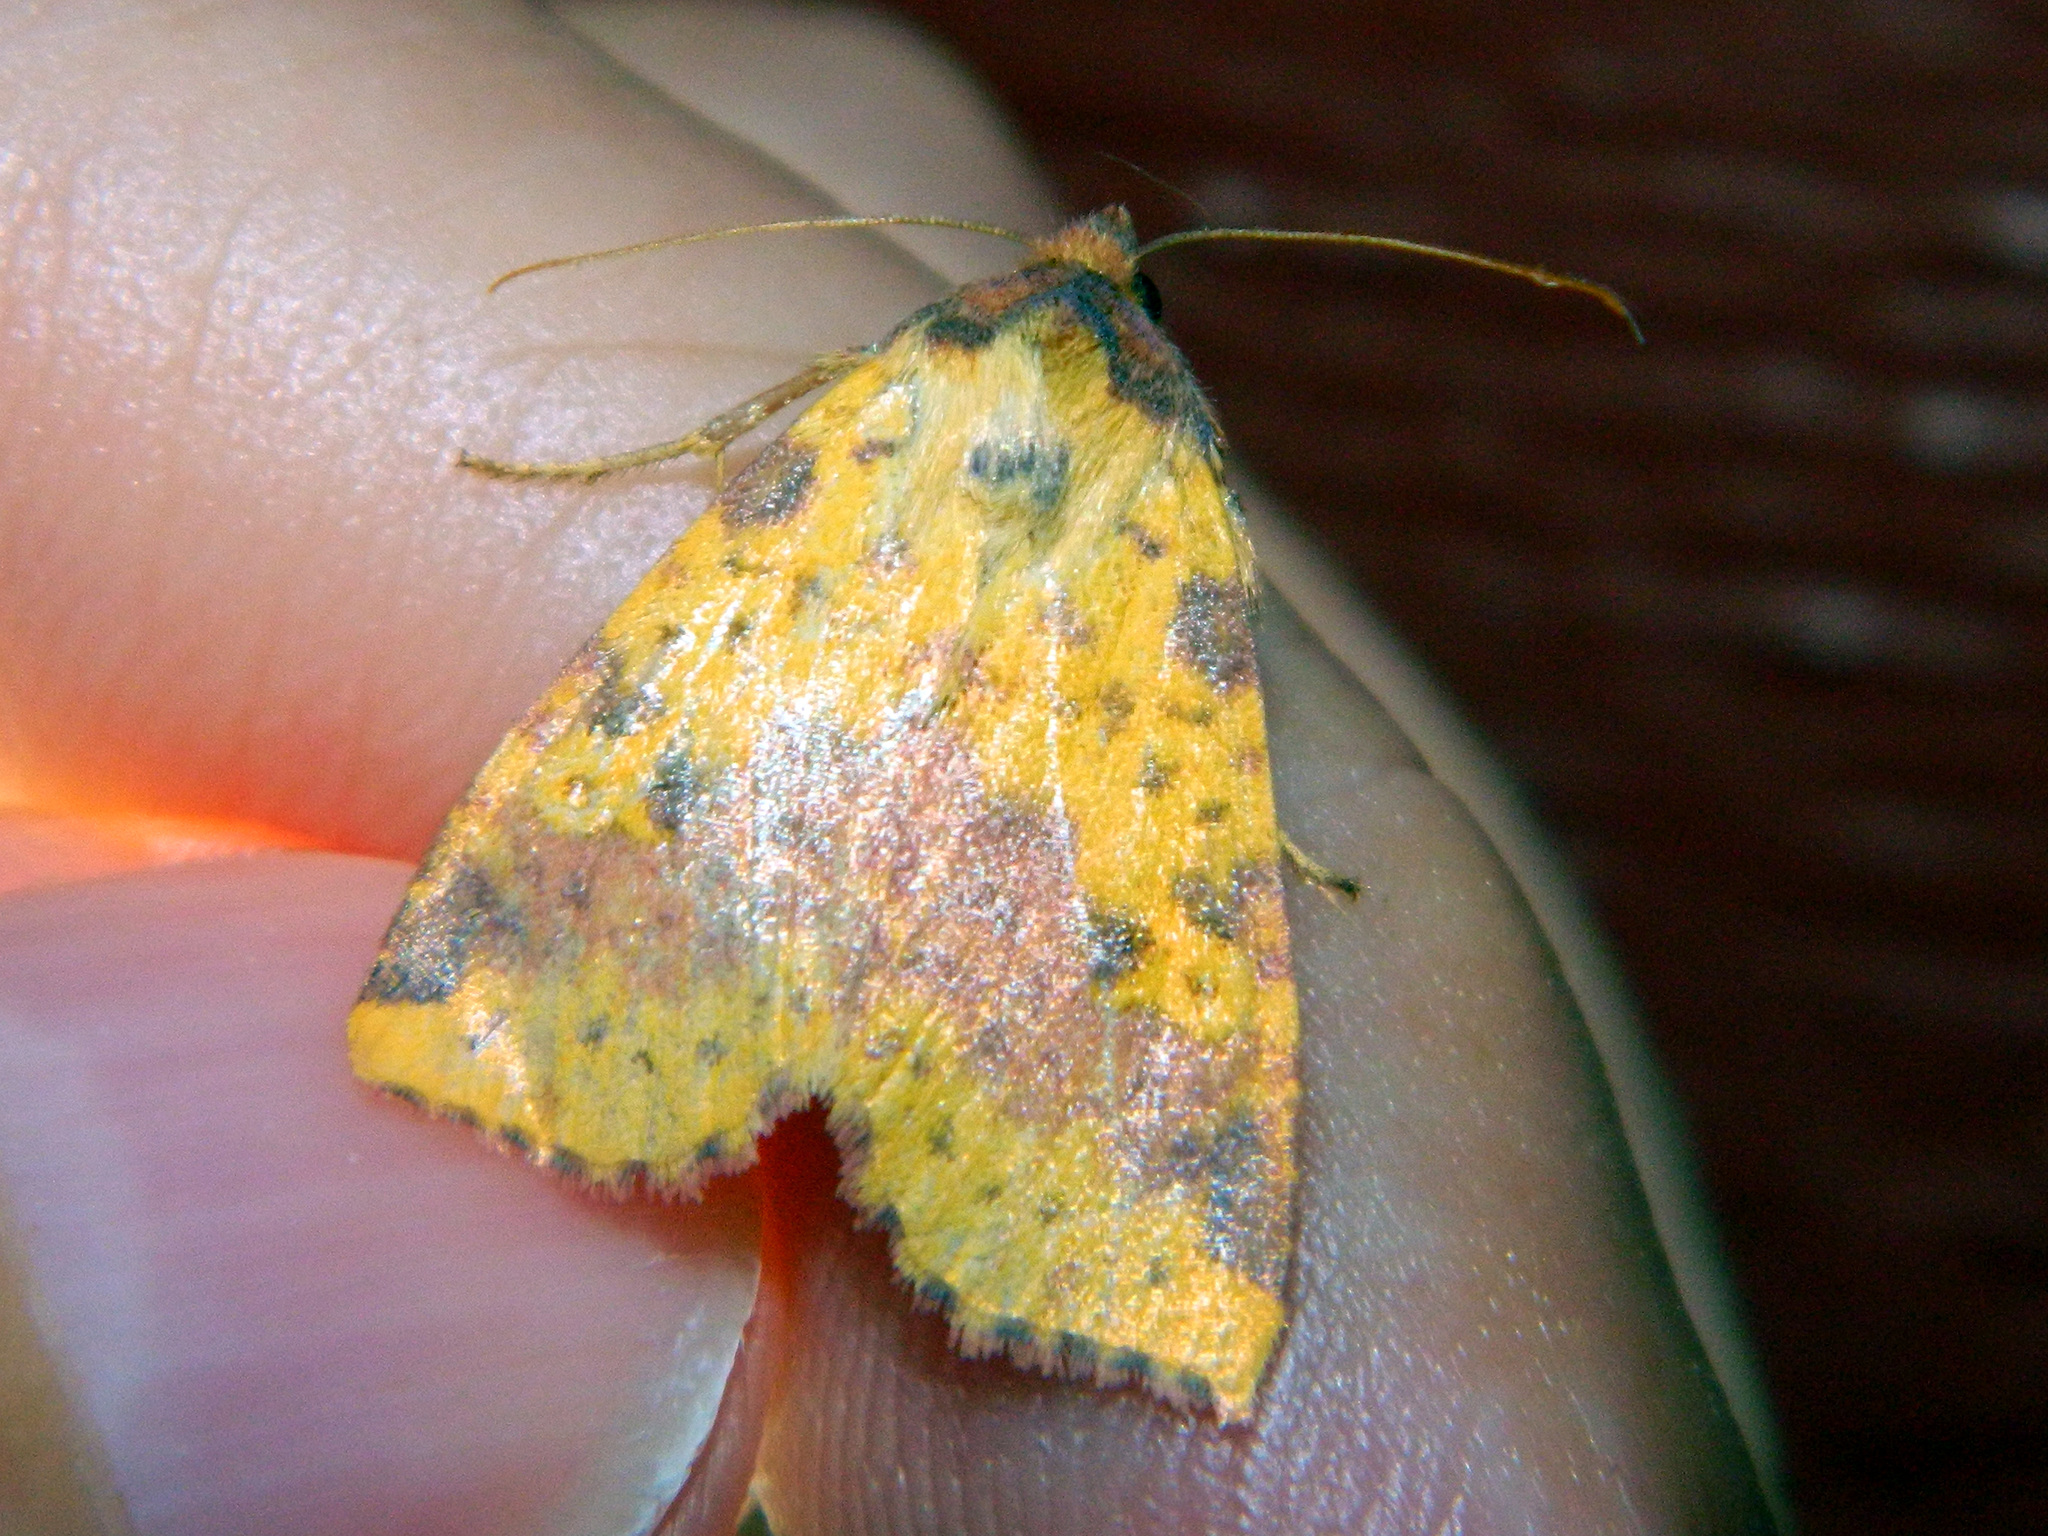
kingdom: Animalia
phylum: Arthropoda
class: Insecta
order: Lepidoptera
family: Noctuidae
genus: Xanthia
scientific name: Xanthia tatago
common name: Pink-banded sallow
